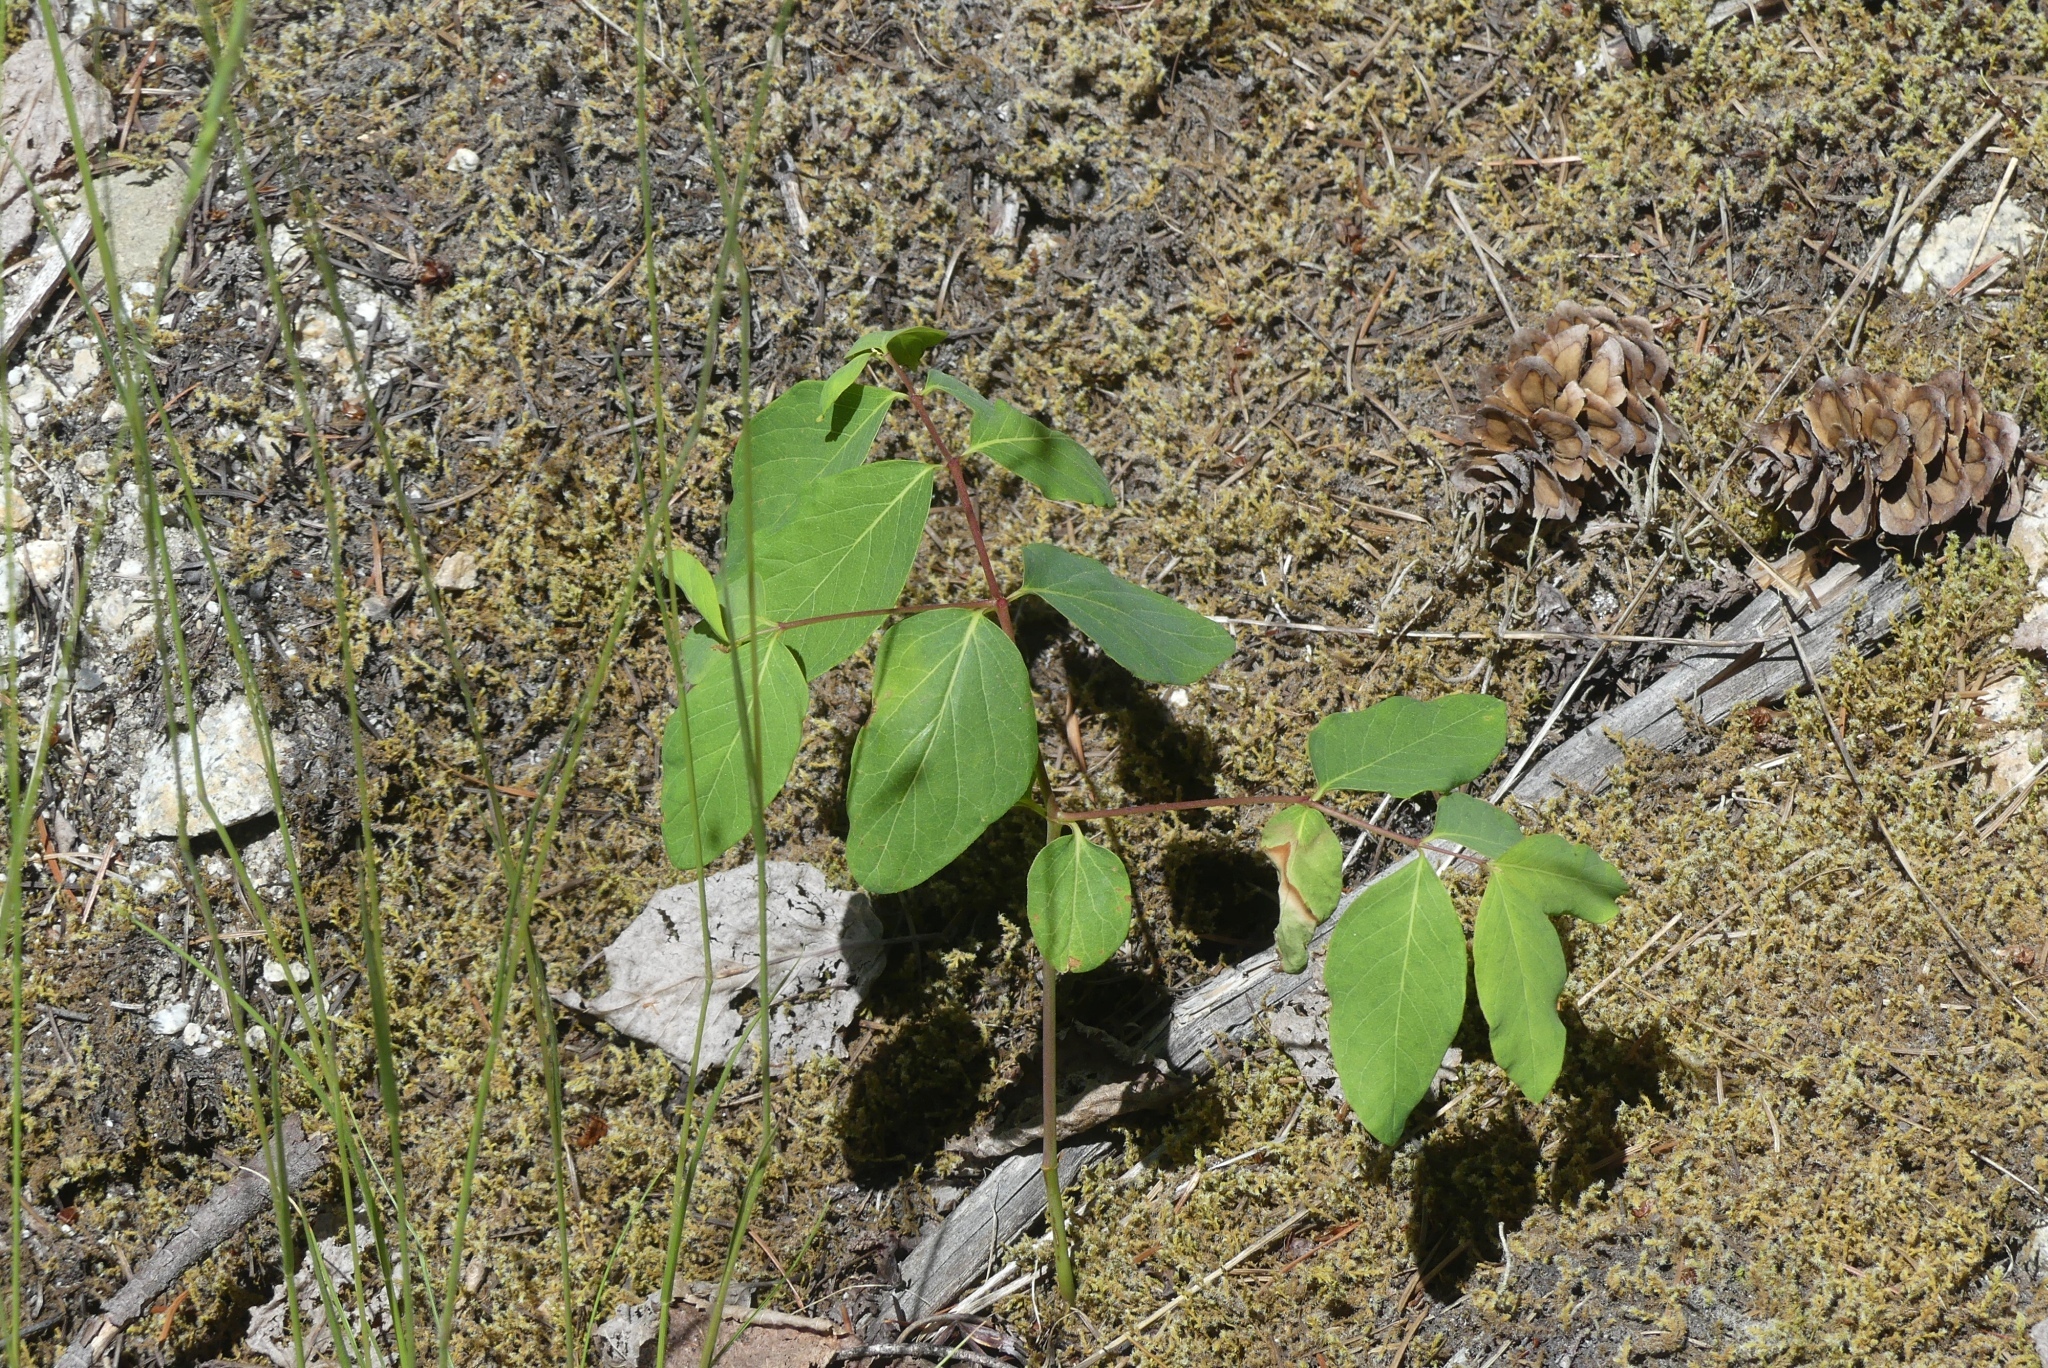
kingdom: Plantae
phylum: Tracheophyta
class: Magnoliopsida
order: Gentianales
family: Apocynaceae
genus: Apocynum
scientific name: Apocynum androsaemifolium
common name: Spreading dogbane
